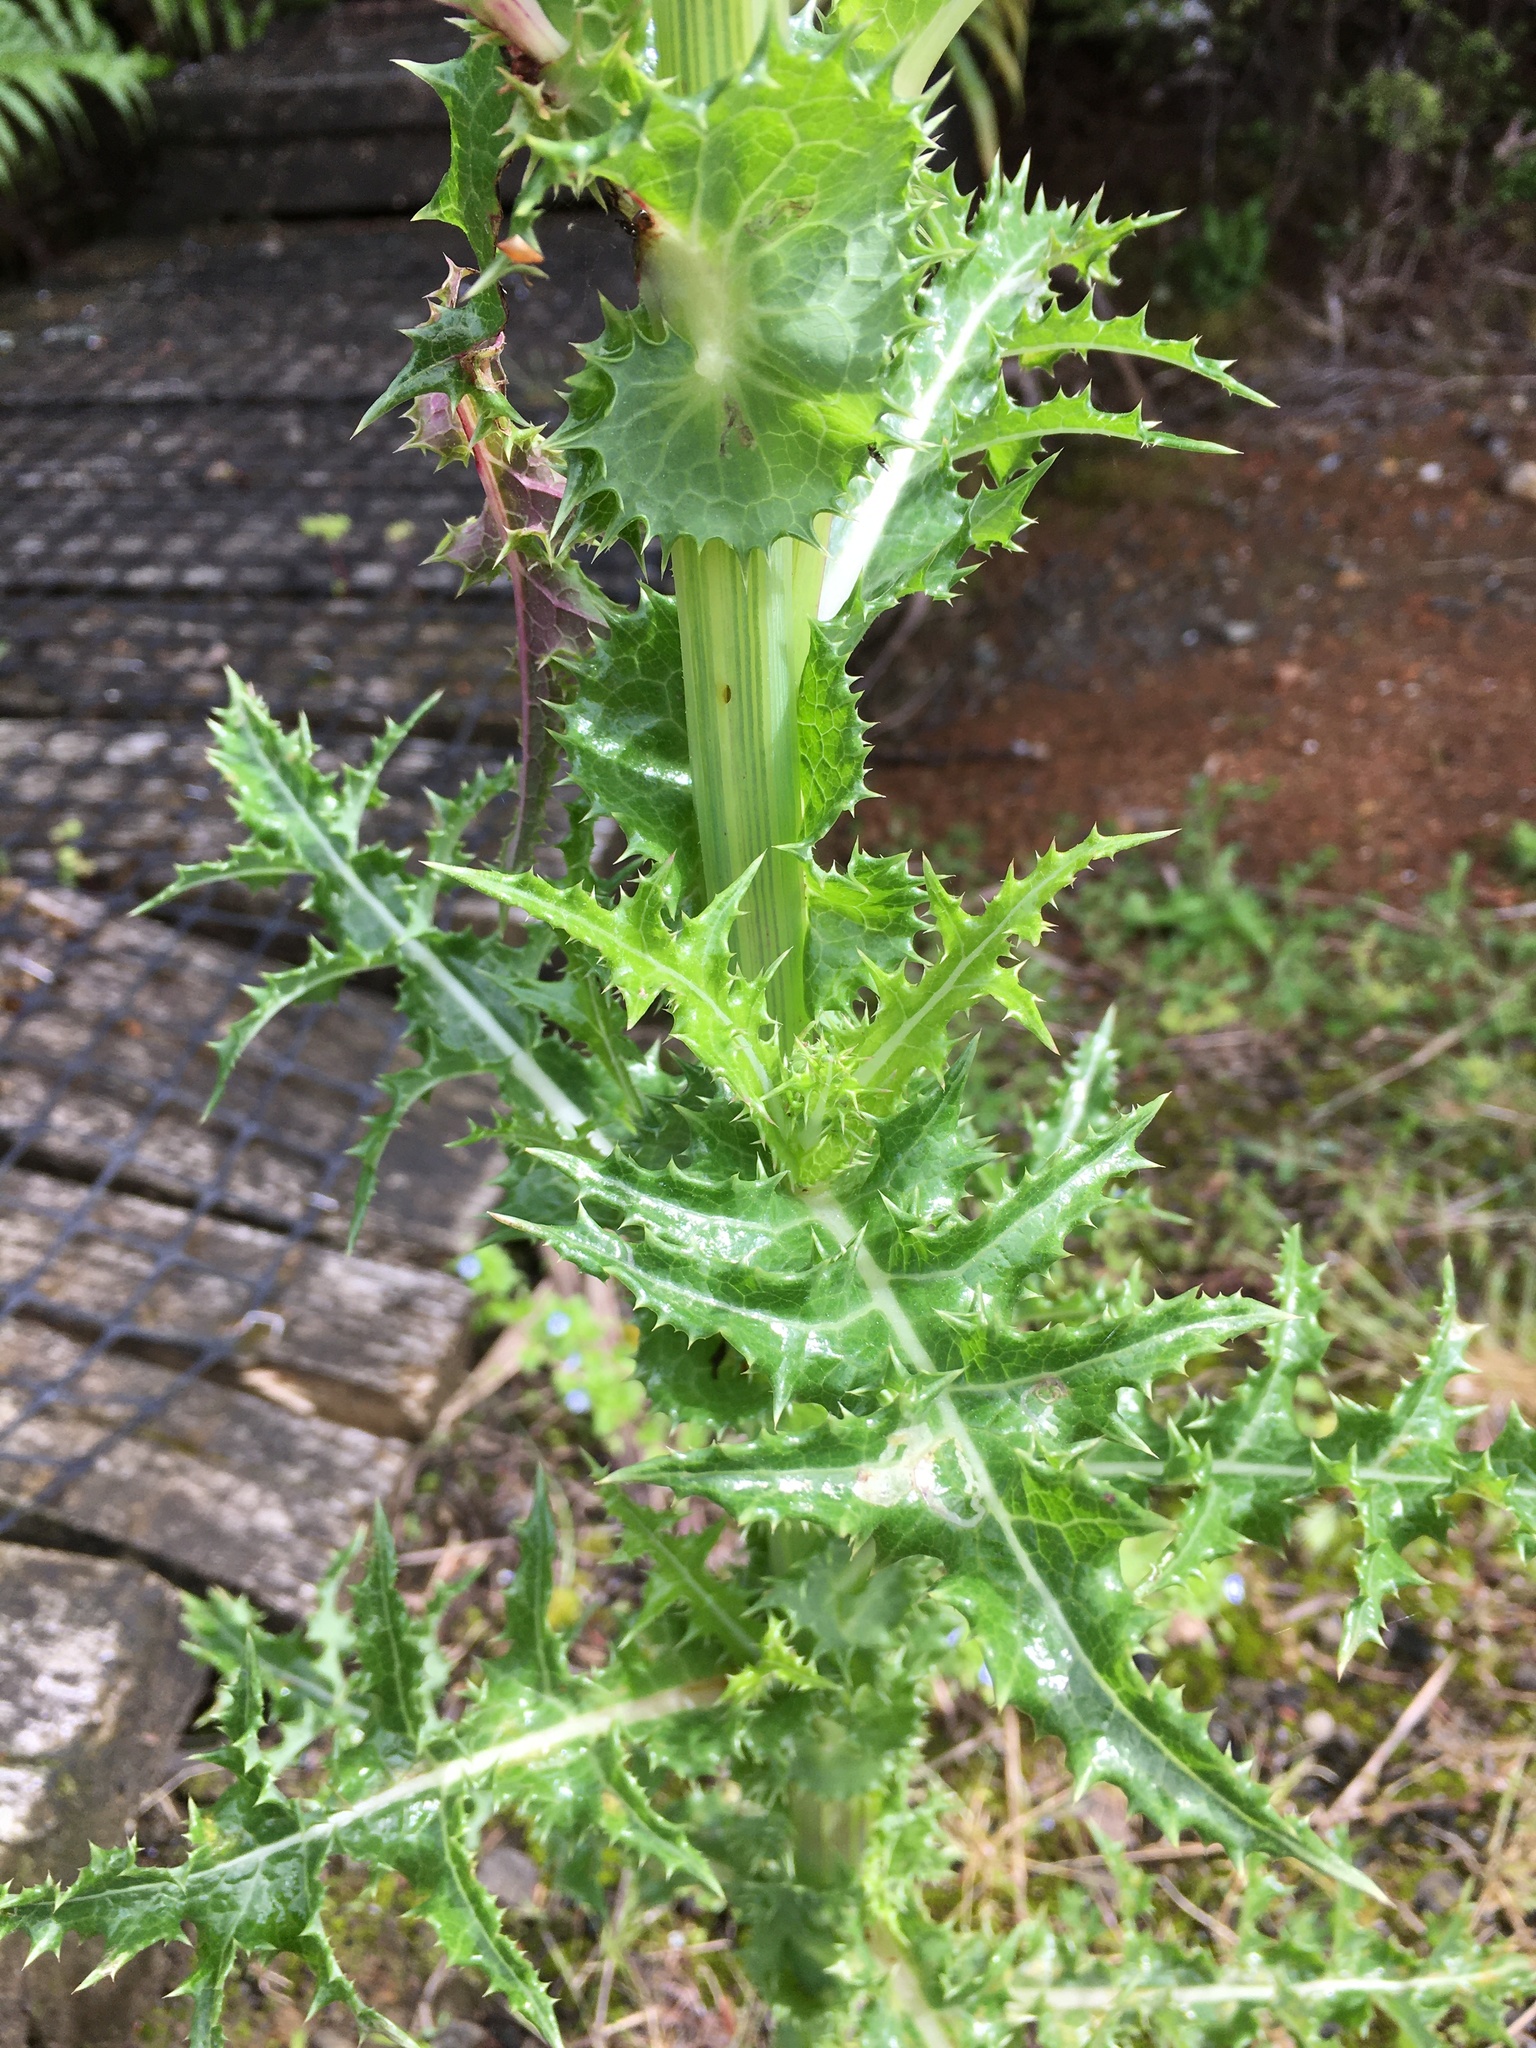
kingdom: Plantae
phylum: Tracheophyta
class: Magnoliopsida
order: Asterales
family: Asteraceae
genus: Sonchus
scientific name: Sonchus asper
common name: Prickly sow-thistle
